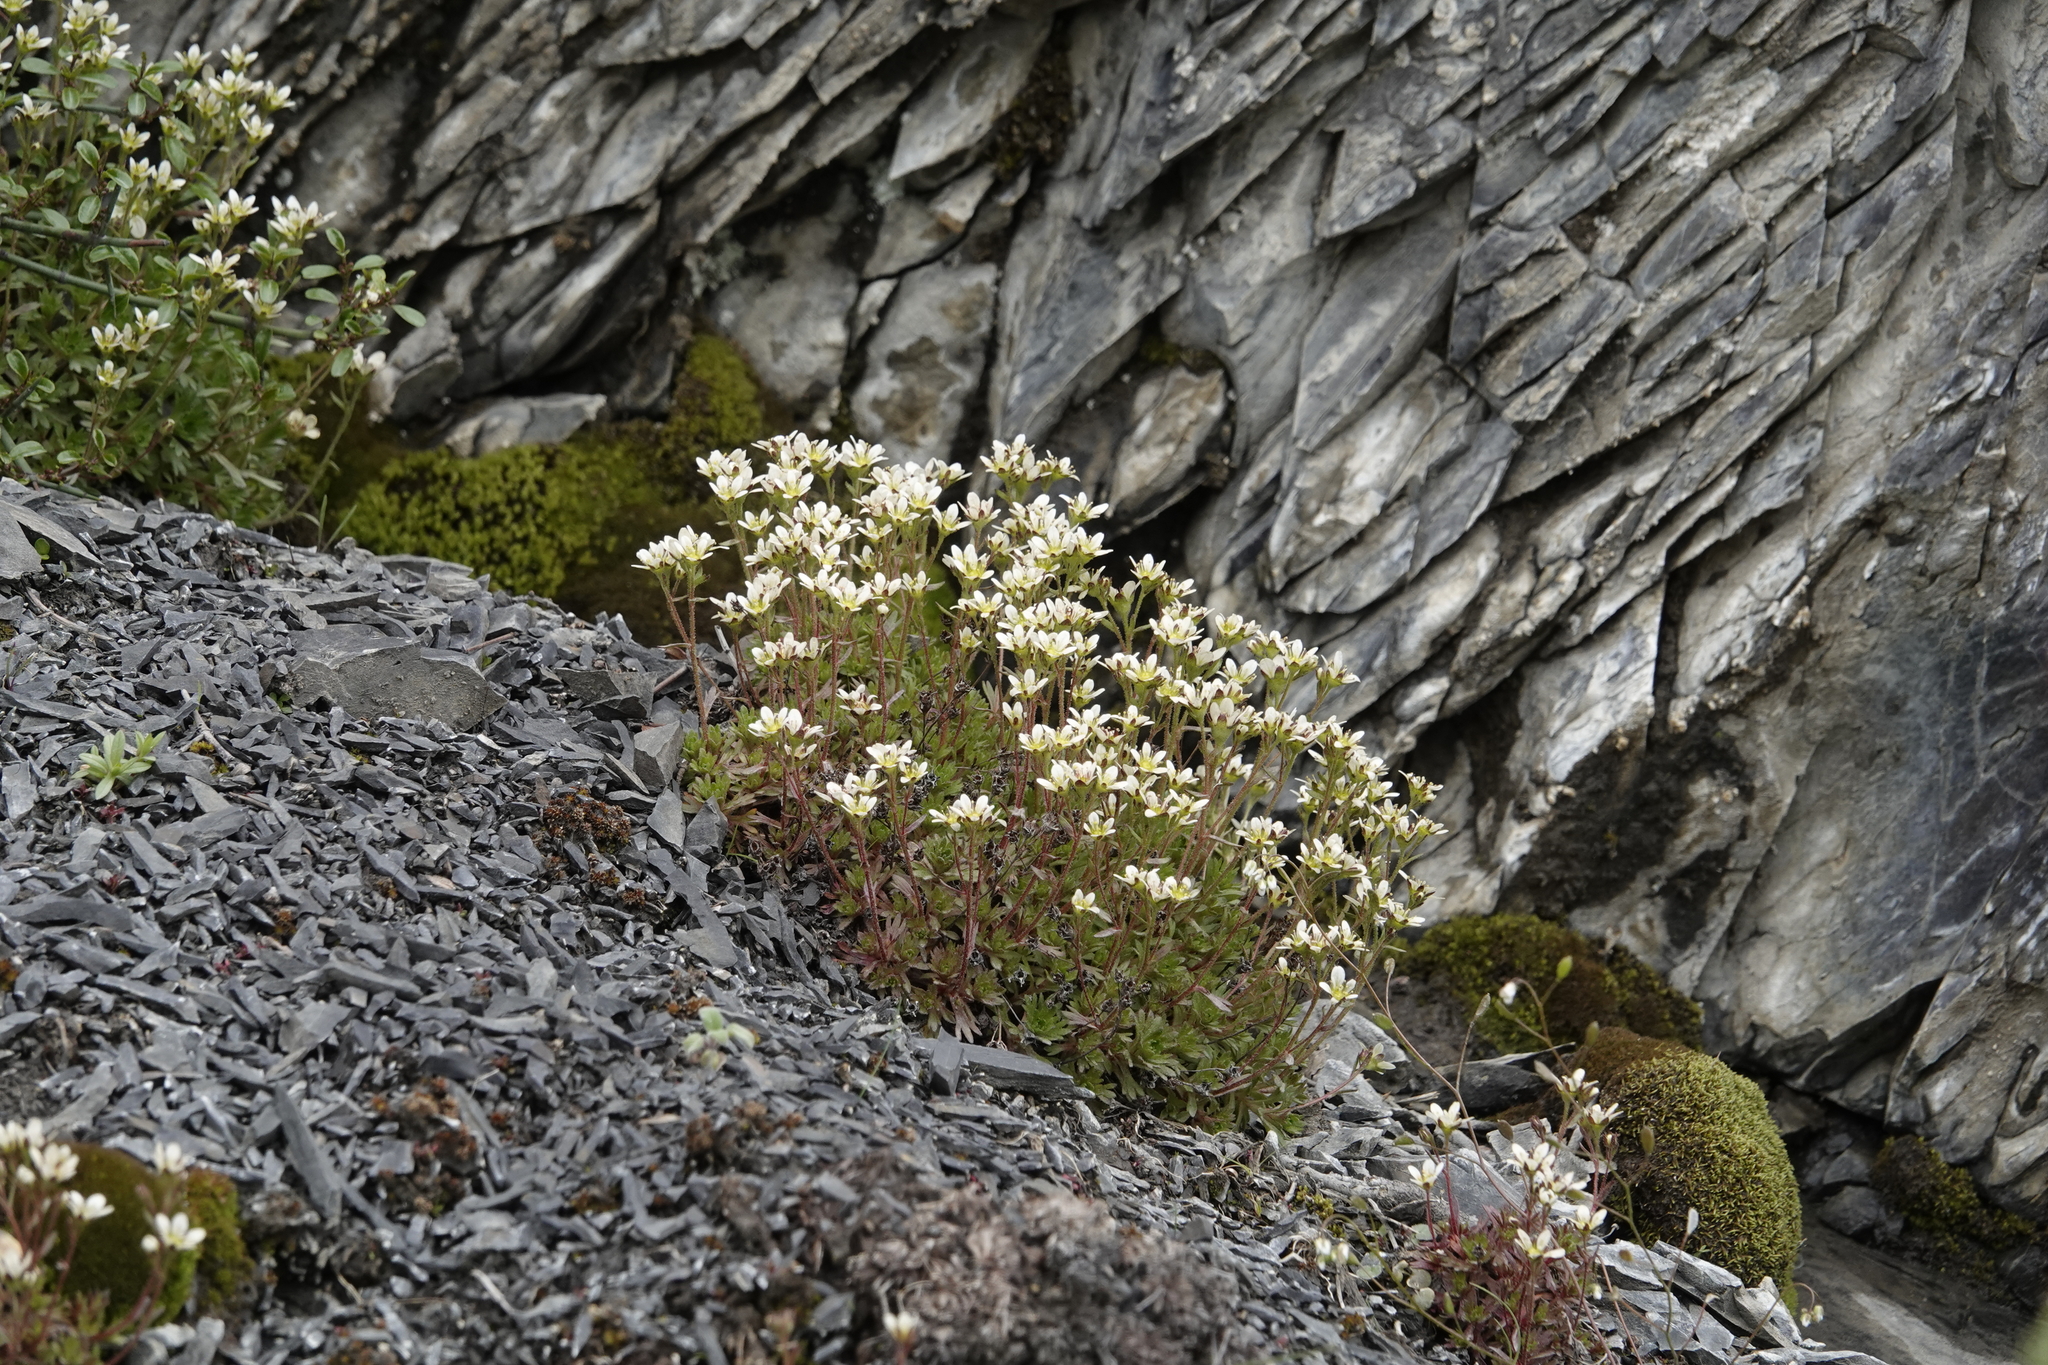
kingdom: Plantae
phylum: Tracheophyta
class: Magnoliopsida
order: Saxifragales
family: Saxifragaceae
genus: Saxifraga
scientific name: Saxifraga magellanica
